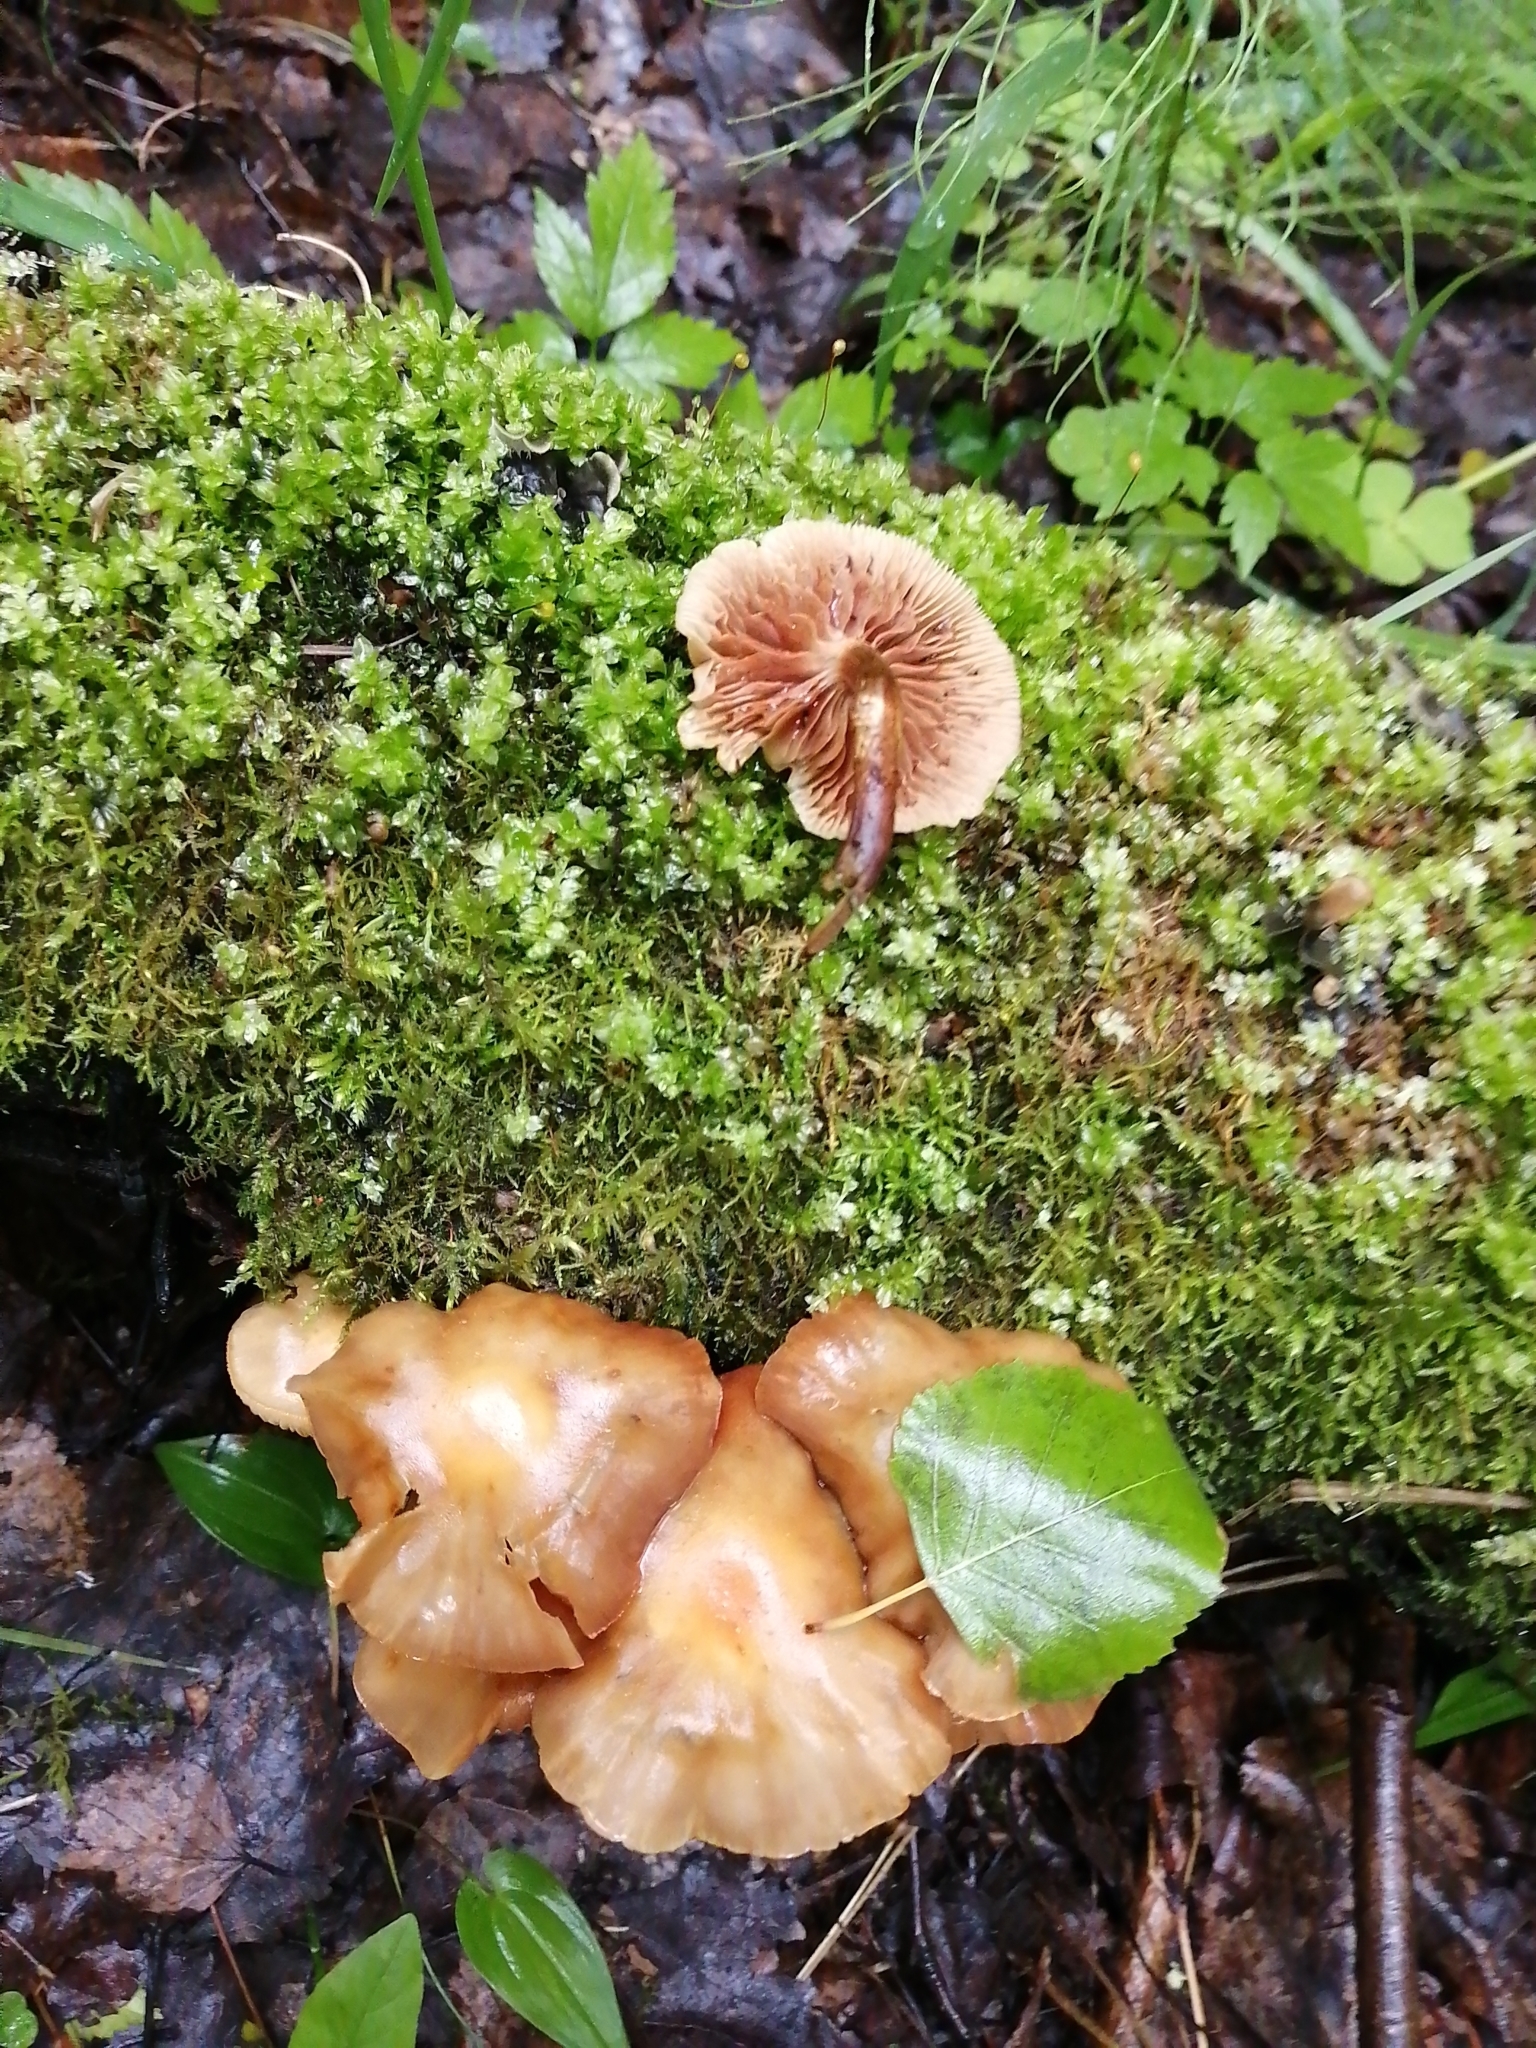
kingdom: Fungi
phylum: Basidiomycota
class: Agaricomycetes
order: Agaricales
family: Strophariaceae
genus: Kuehneromyces
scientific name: Kuehneromyces mutabilis
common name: Sheathed woodtuft
